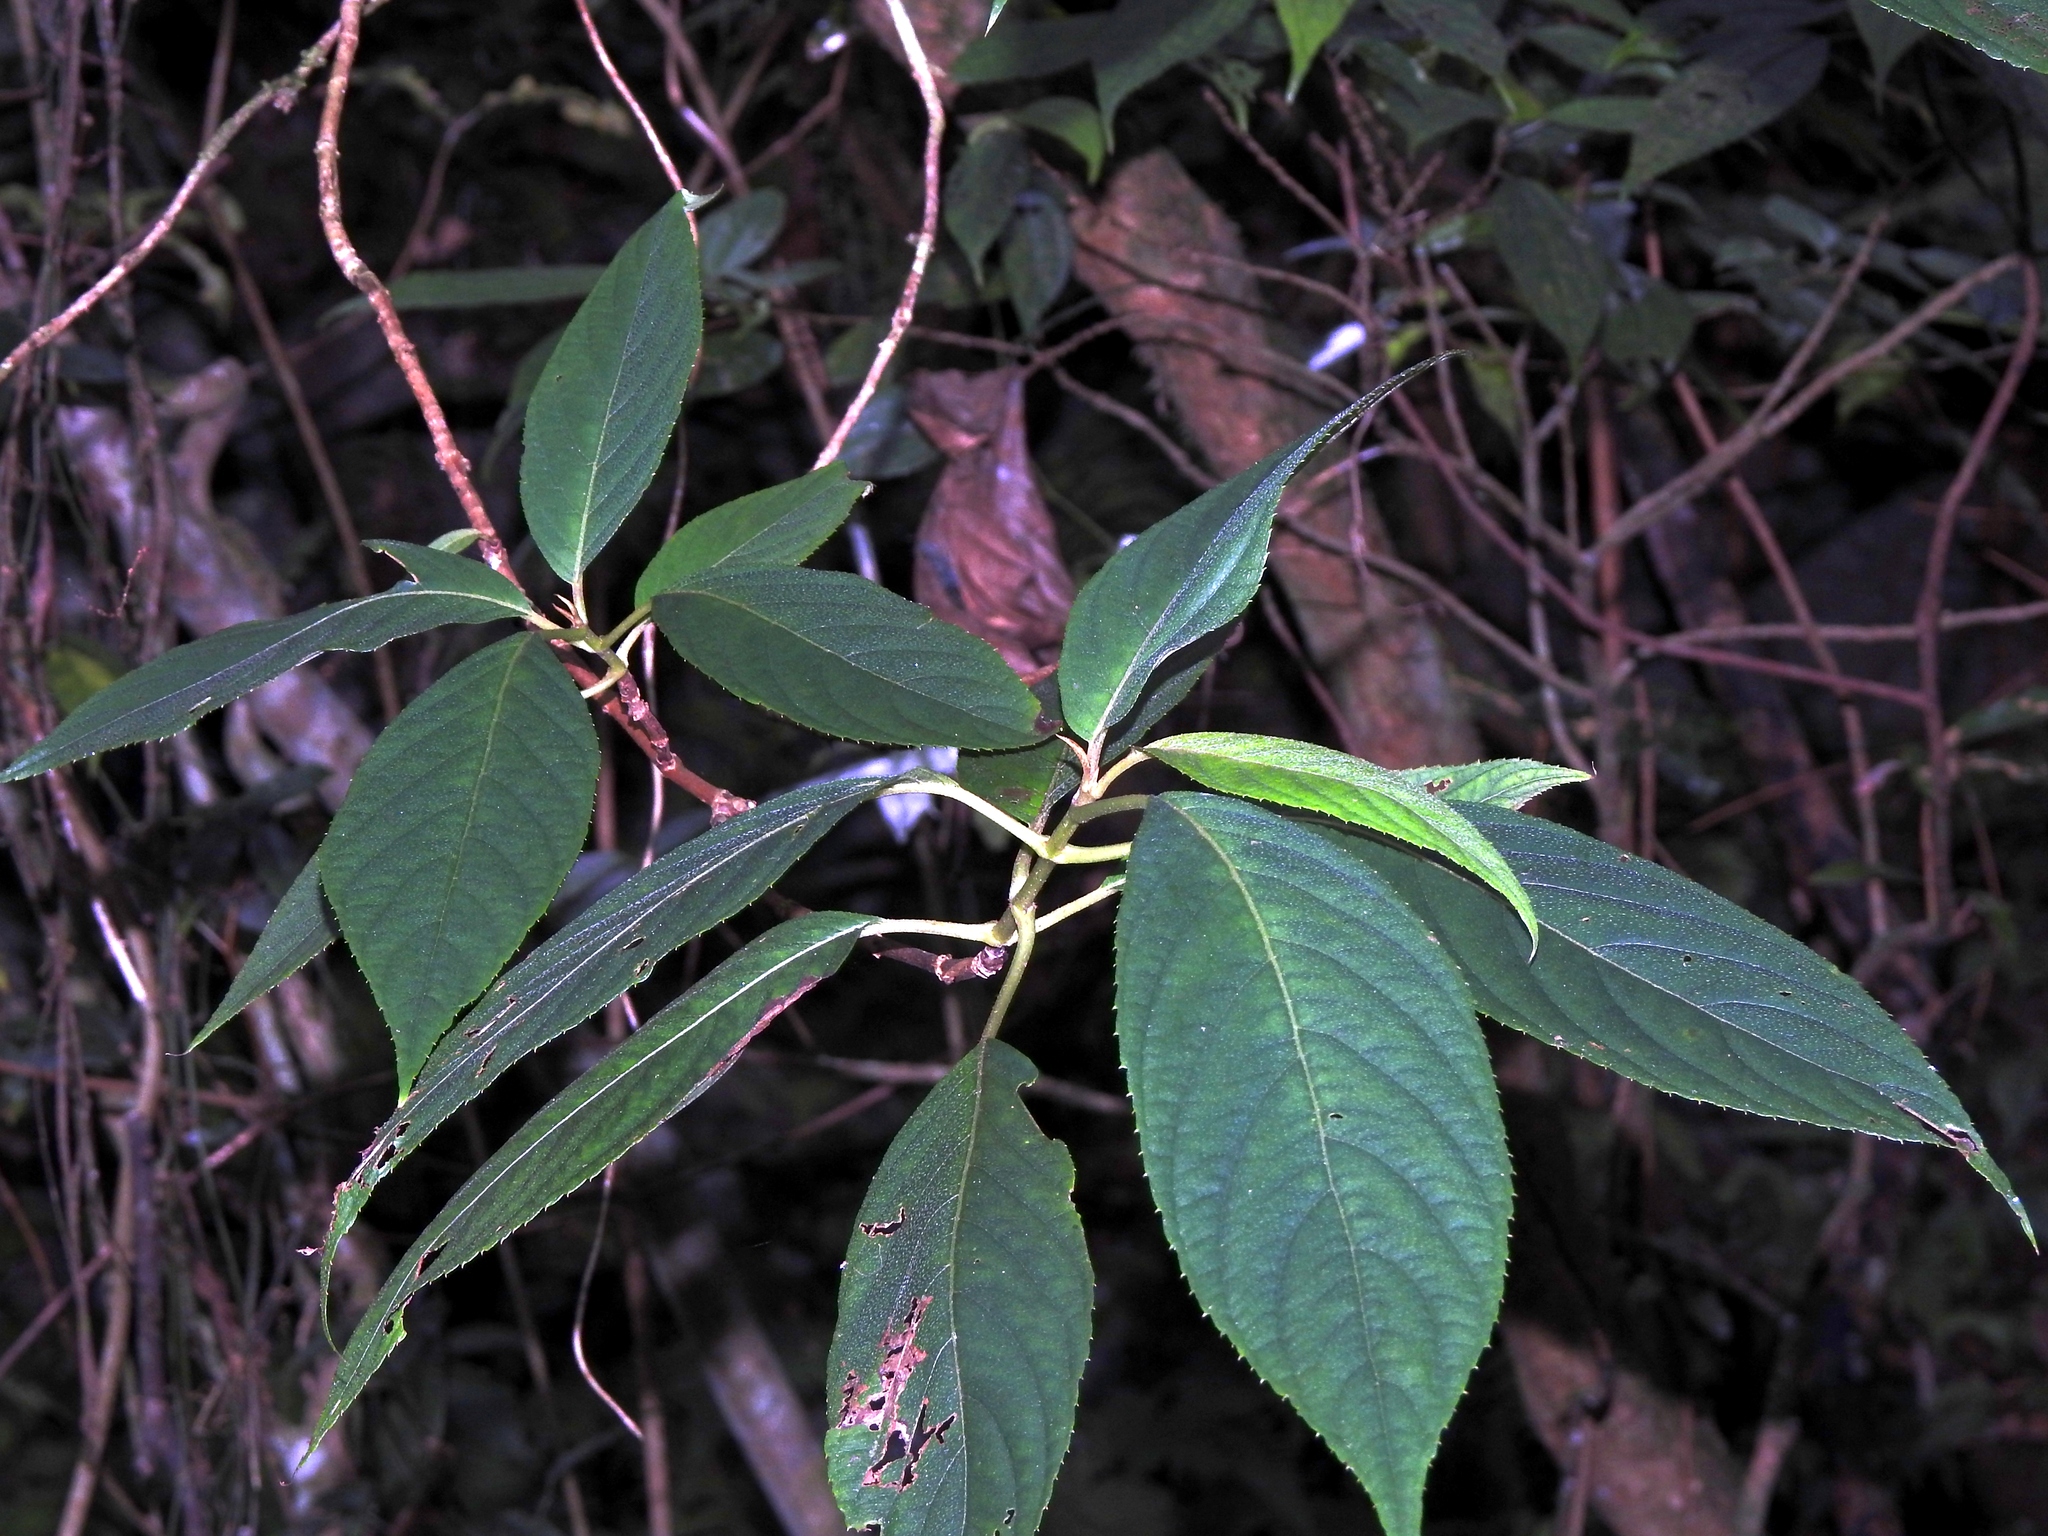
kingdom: Plantae
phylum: Tracheophyta
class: Magnoliopsida
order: Cornales
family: Hydrangeaceae
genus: Hydrangea
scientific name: Hydrangea longifolia
